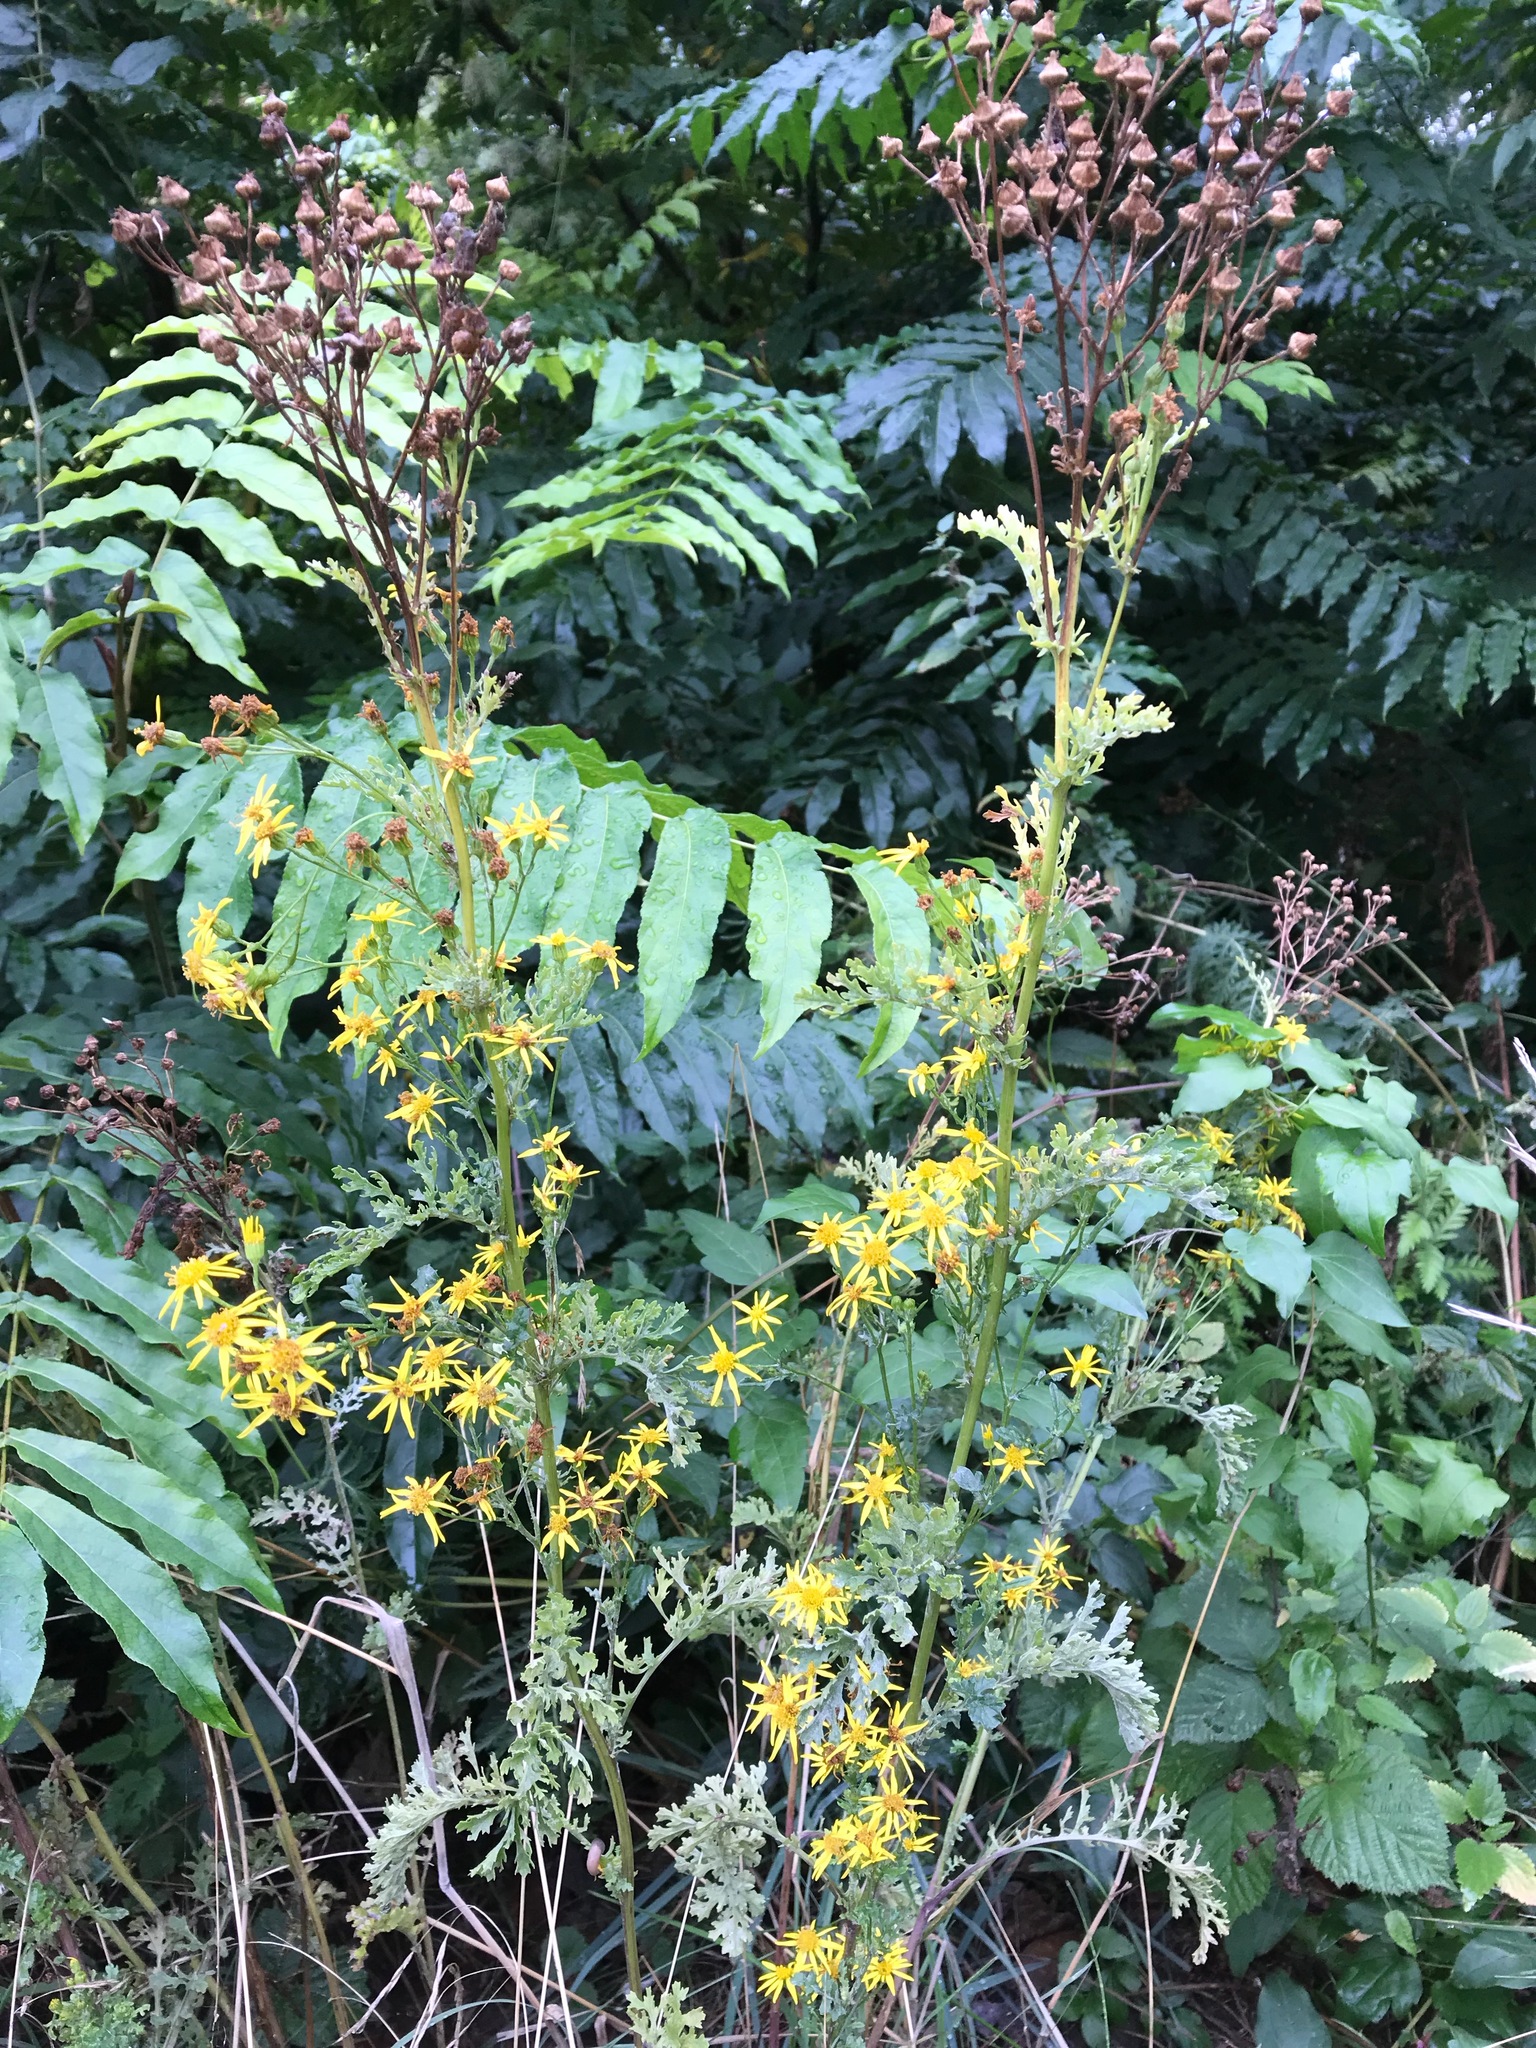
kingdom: Plantae
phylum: Tracheophyta
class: Magnoliopsida
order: Asterales
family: Asteraceae
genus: Jacobaea
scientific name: Jacobaea vulgaris
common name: Stinking willie
